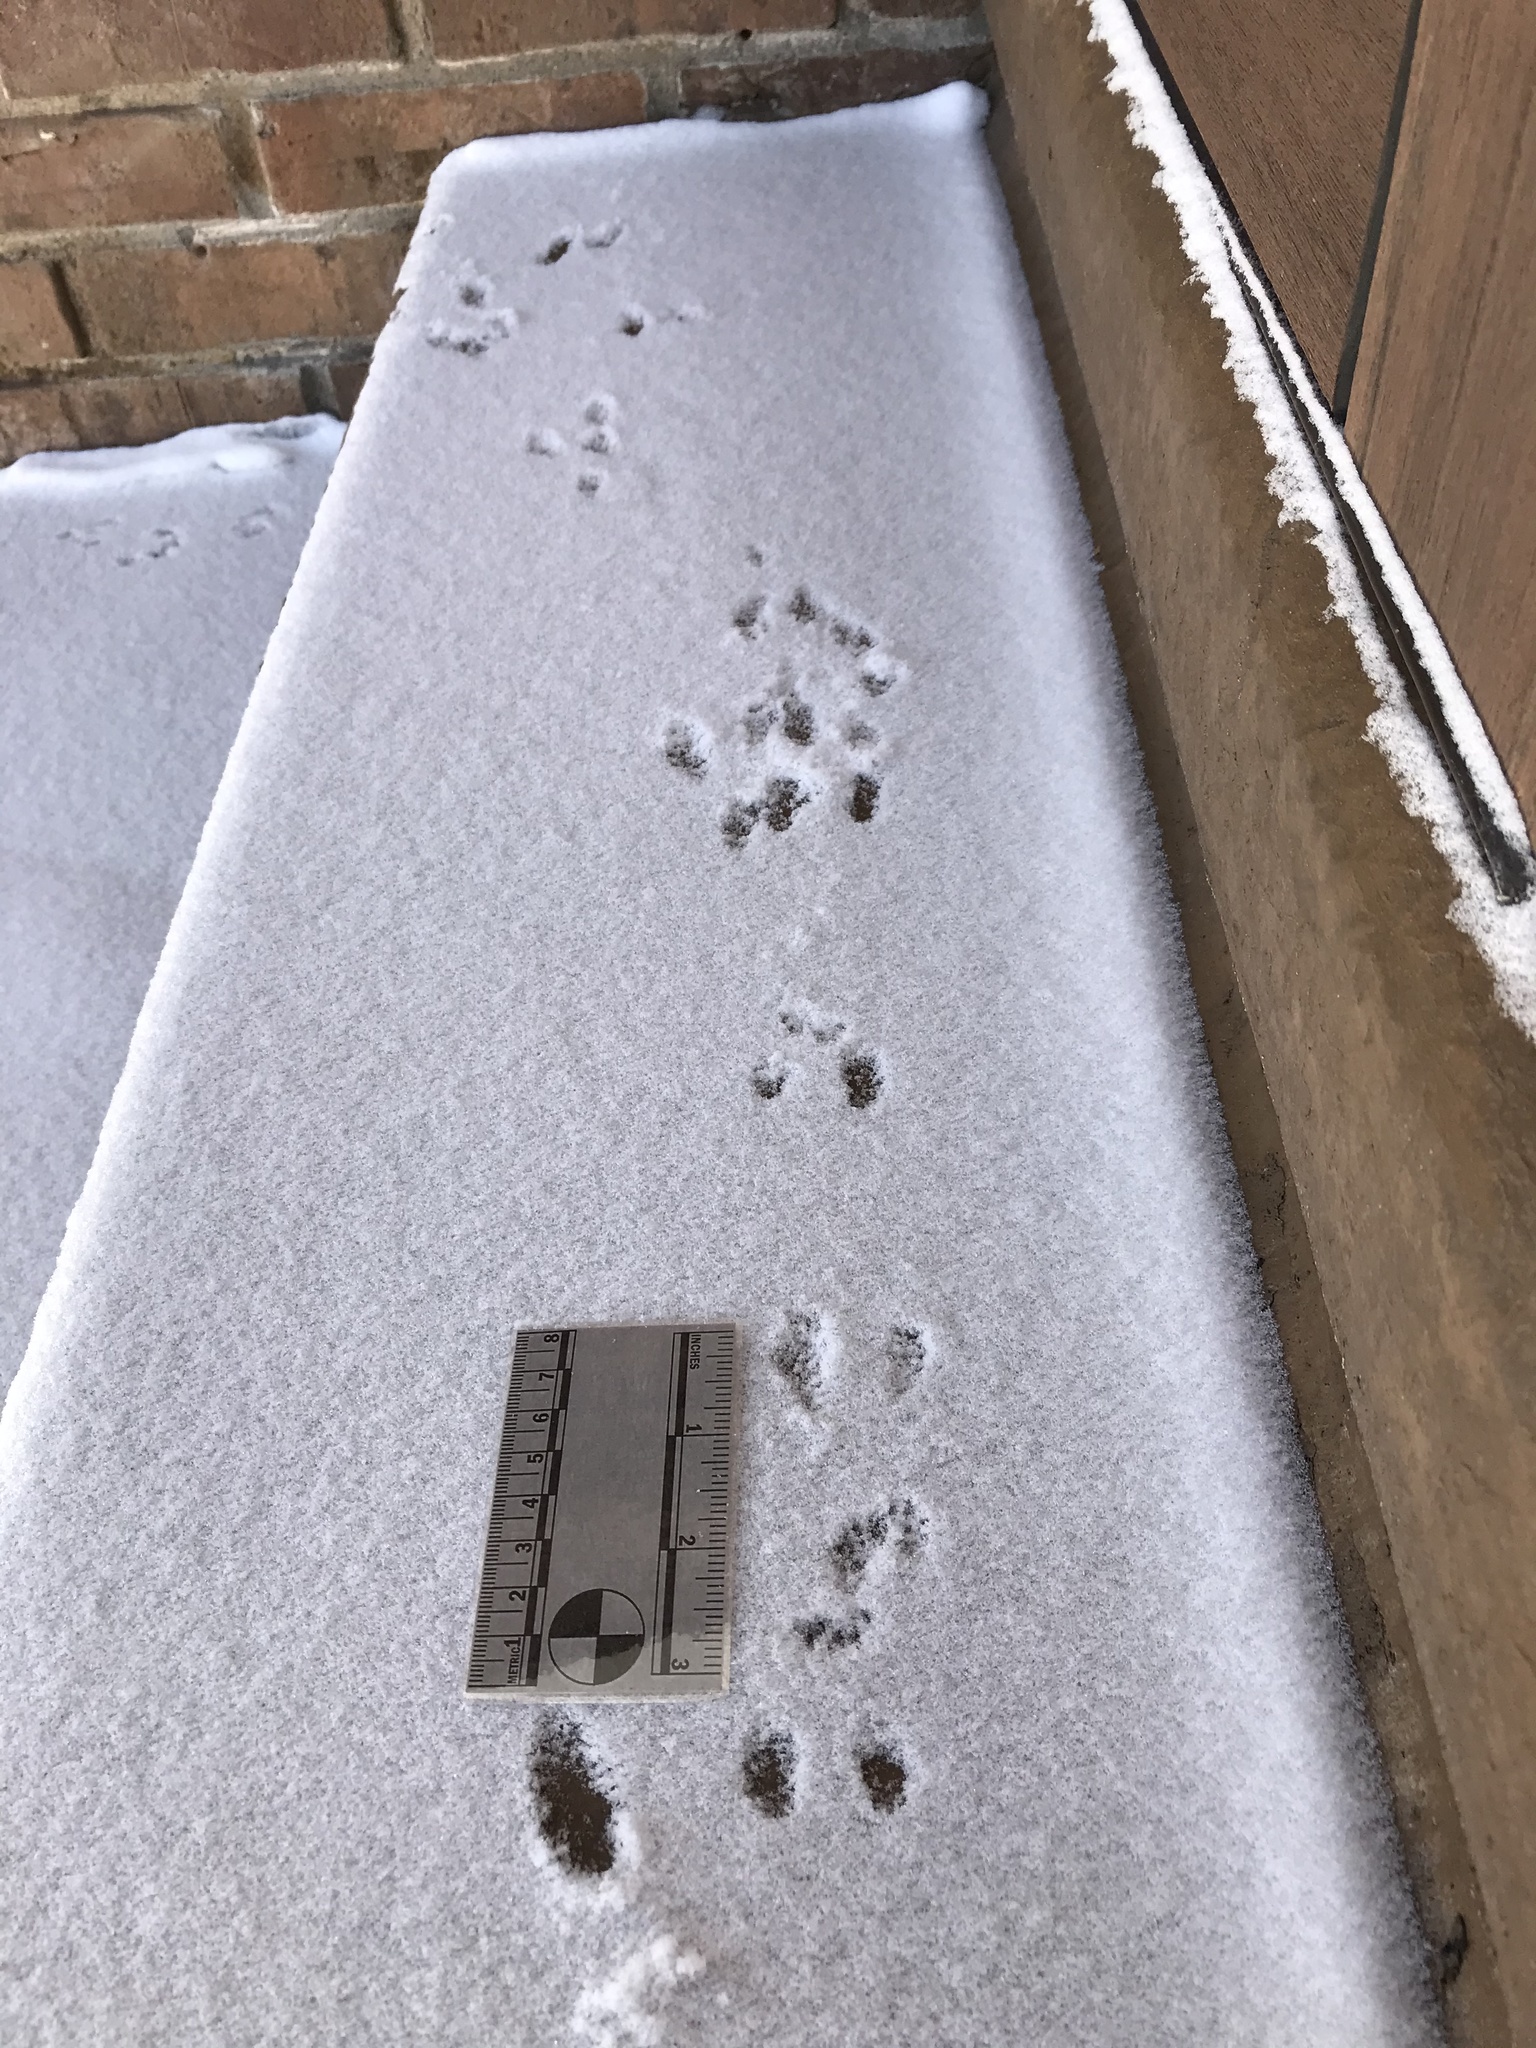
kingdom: Animalia
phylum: Chordata
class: Mammalia
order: Rodentia
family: Muridae
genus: Mus
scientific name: Mus musculus
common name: House mouse
